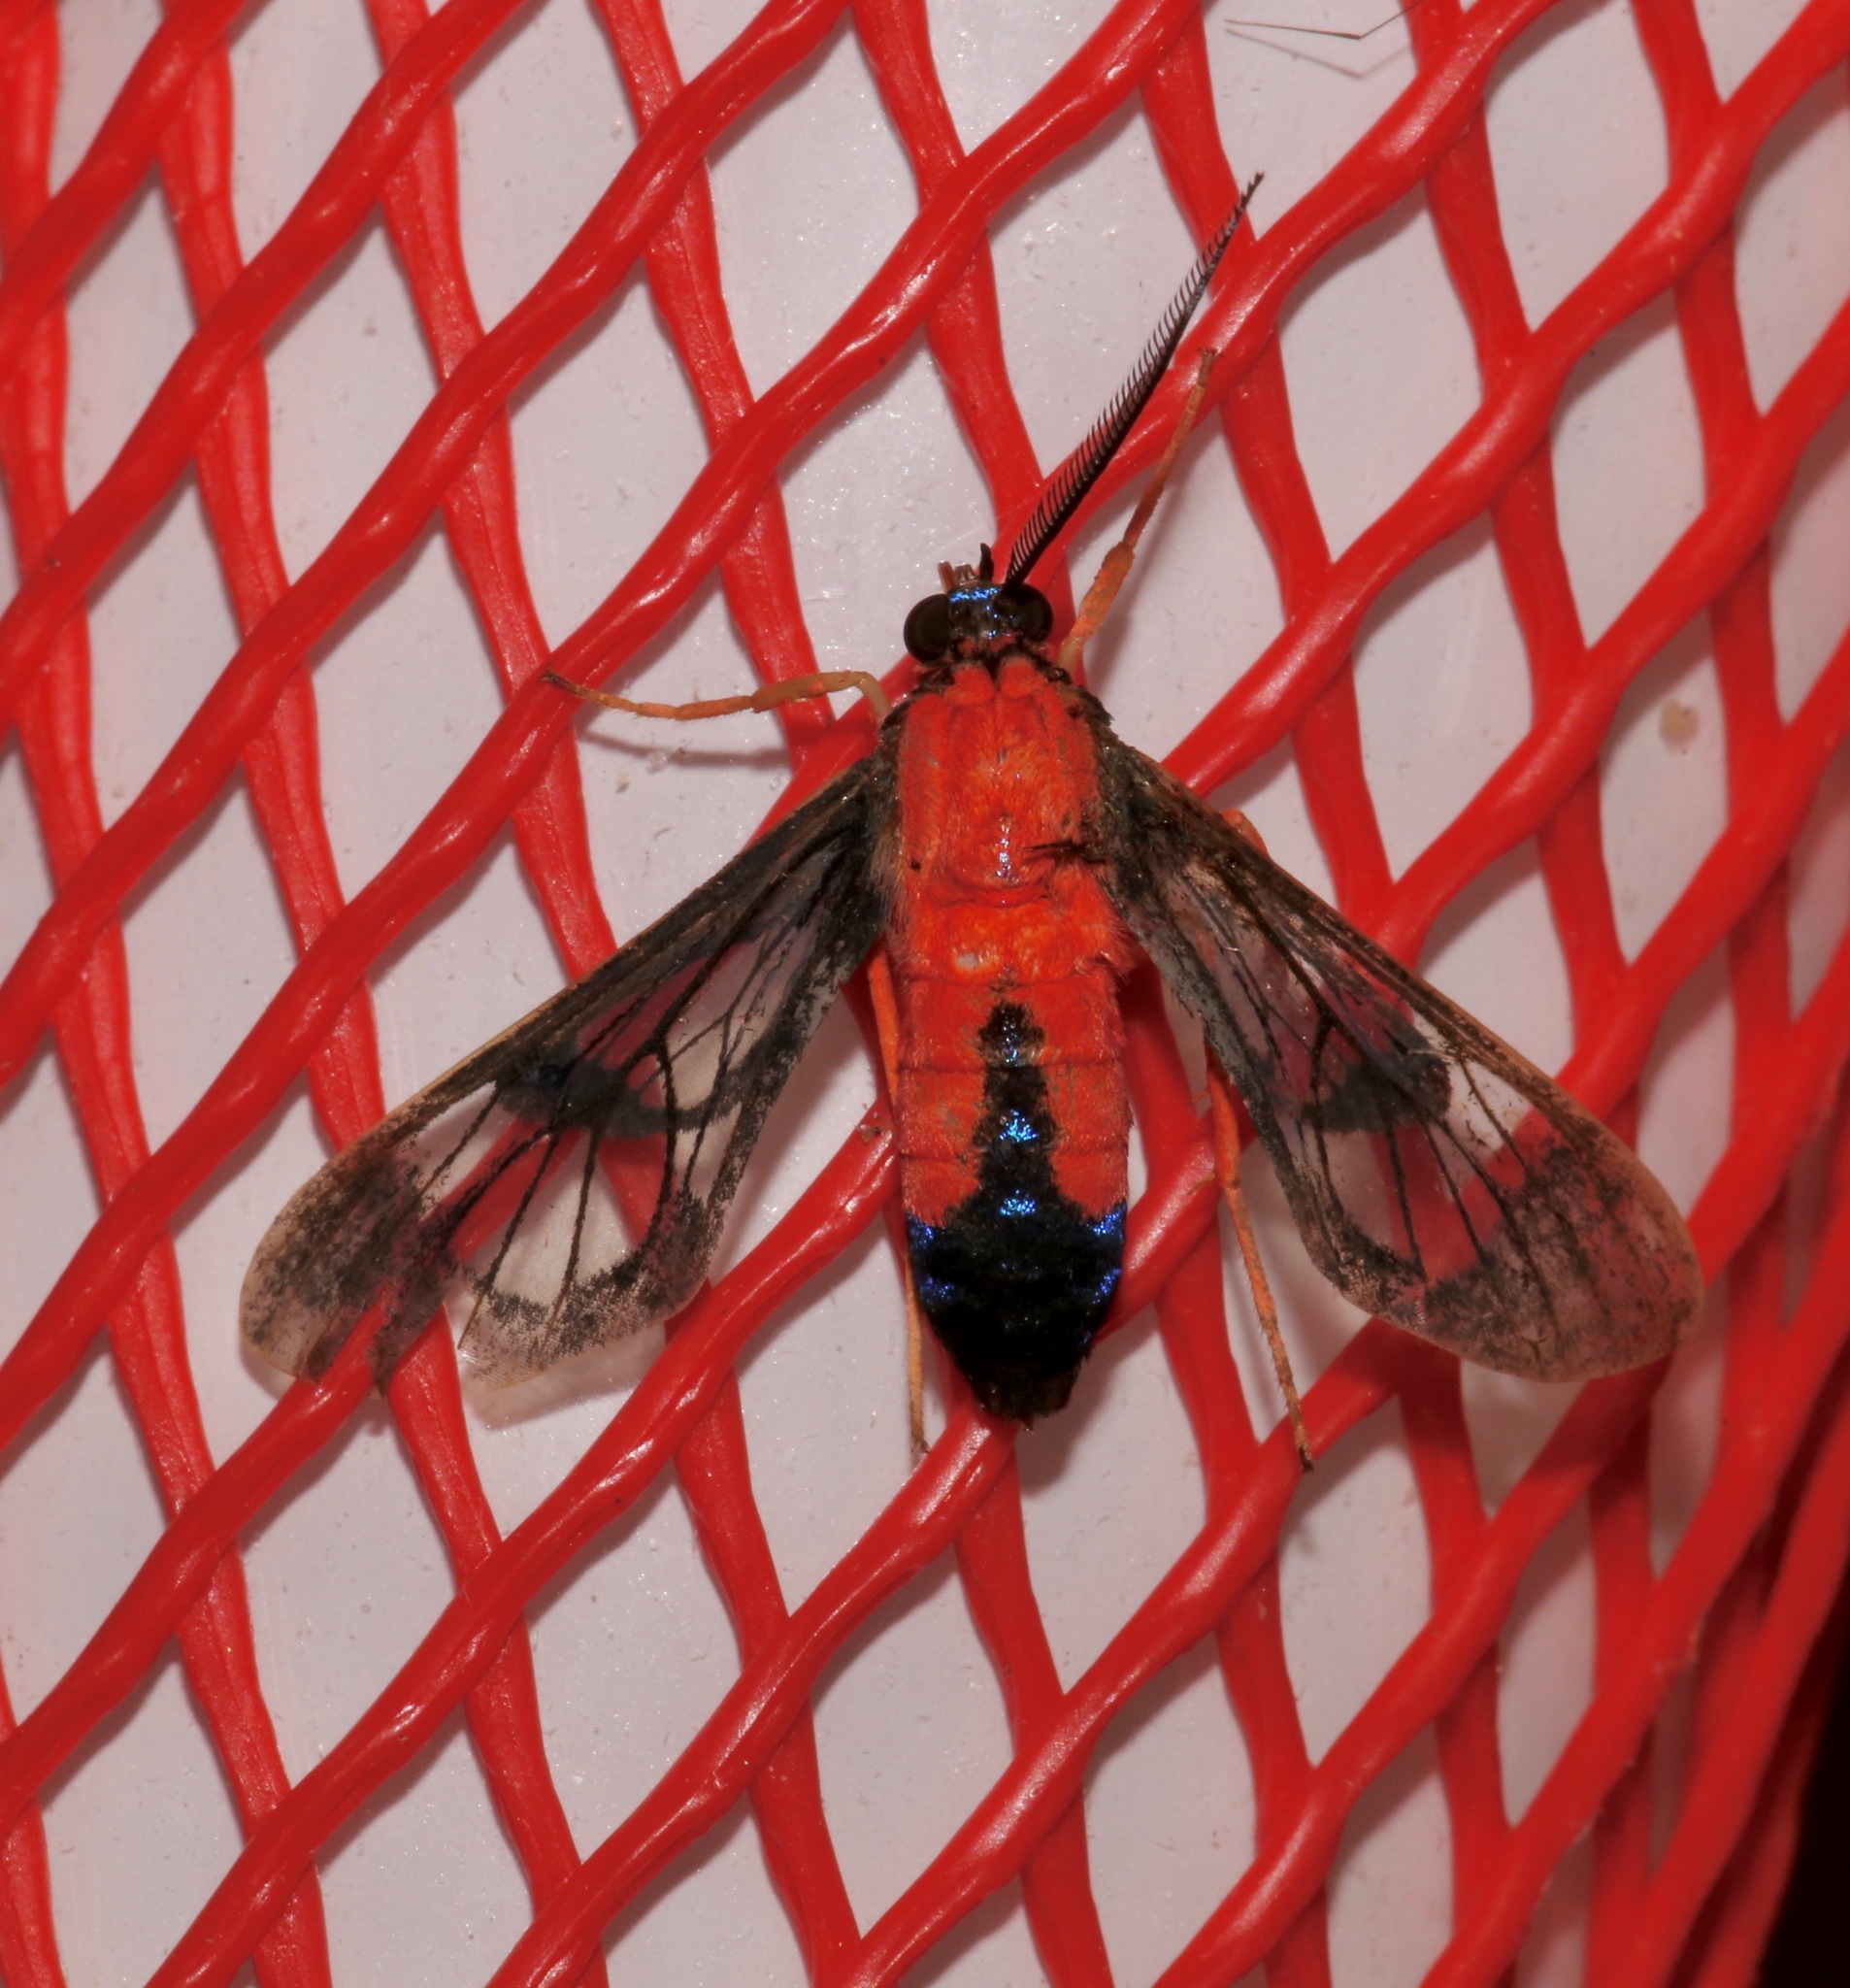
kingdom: Animalia
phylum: Arthropoda
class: Insecta
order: Lepidoptera
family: Erebidae
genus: Cosmosoma
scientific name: Cosmosoma myrodora
